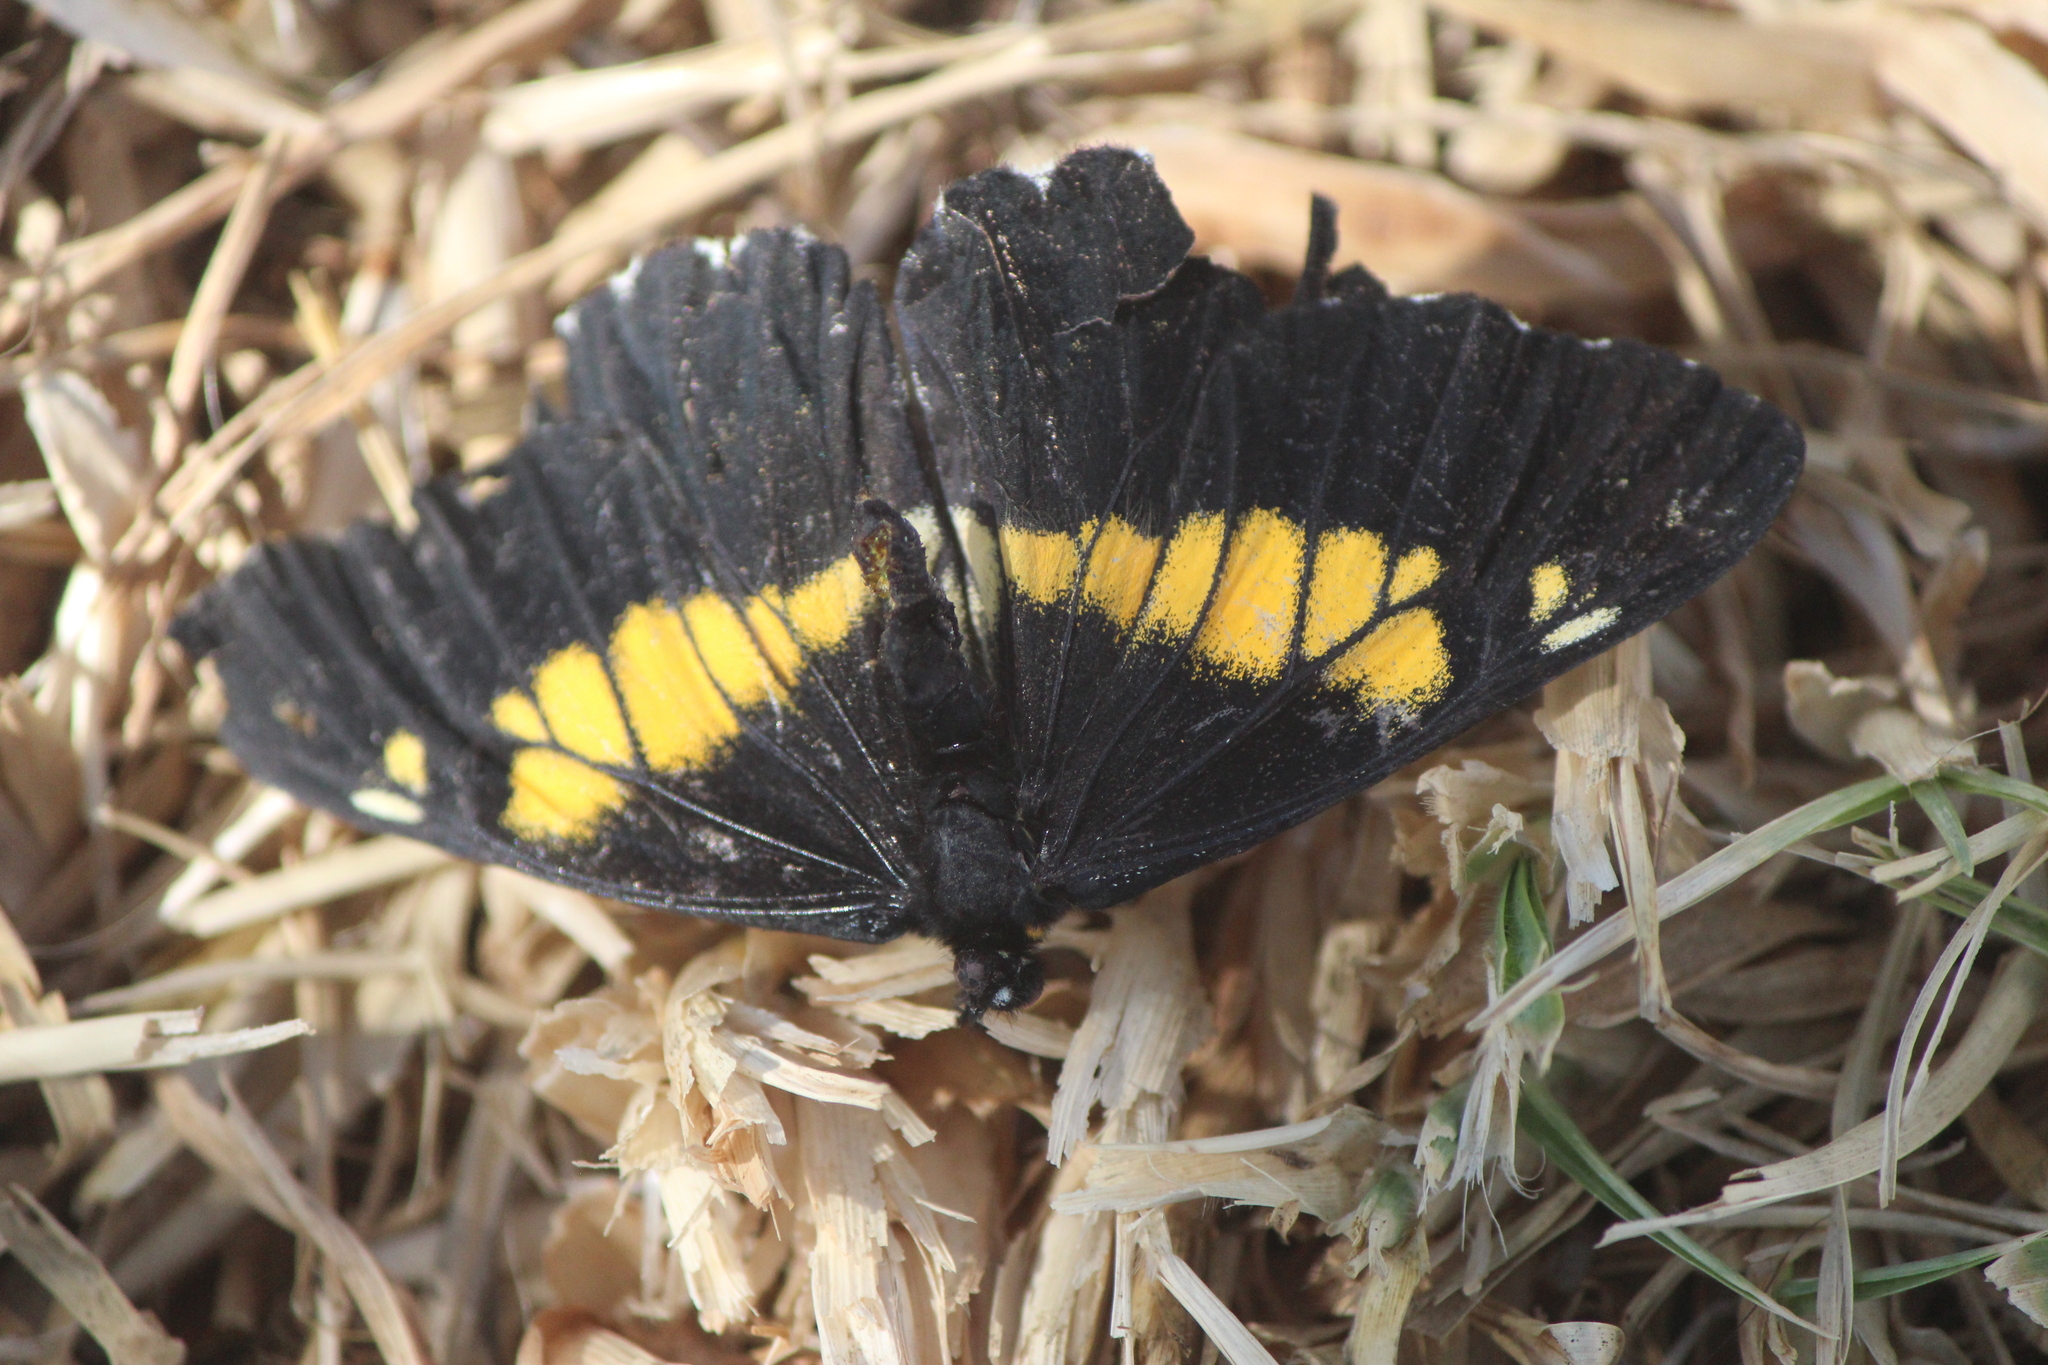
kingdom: Animalia
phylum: Arthropoda
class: Insecta
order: Lepidoptera
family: Pieridae
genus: Archonias
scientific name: Archonias teutila
